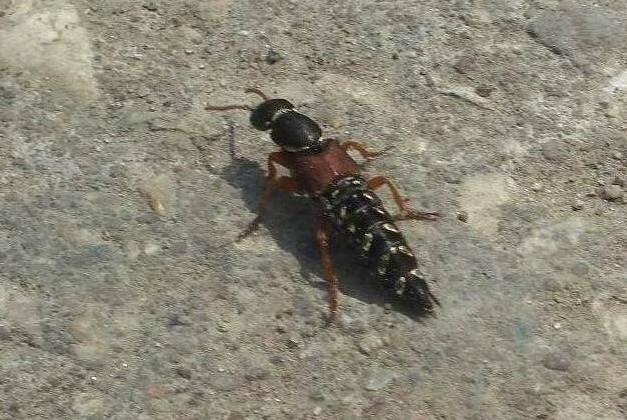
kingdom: Animalia
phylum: Arthropoda
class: Insecta
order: Coleoptera
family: Staphylinidae
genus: Staphylinus
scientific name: Staphylinus caesareus
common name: Staph beetle
